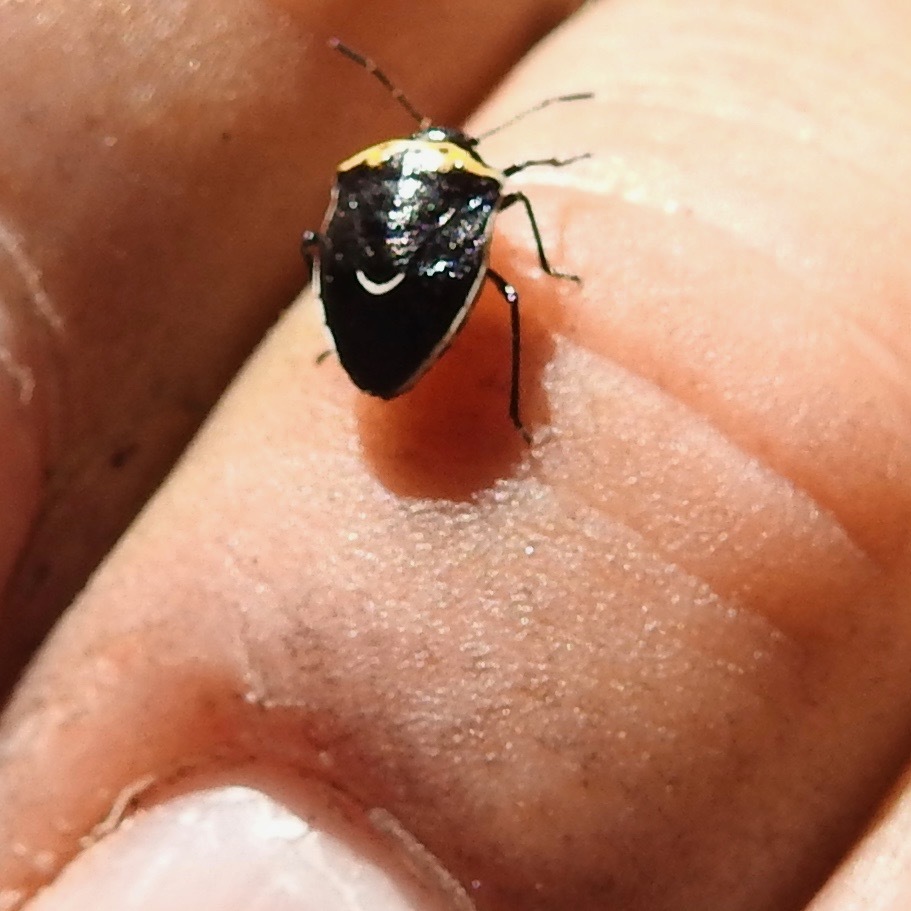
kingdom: Animalia
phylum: Arthropoda
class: Insecta
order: Hemiptera
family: Pentatomidae
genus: Cosmopepla
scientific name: Cosmopepla conspicillaris
